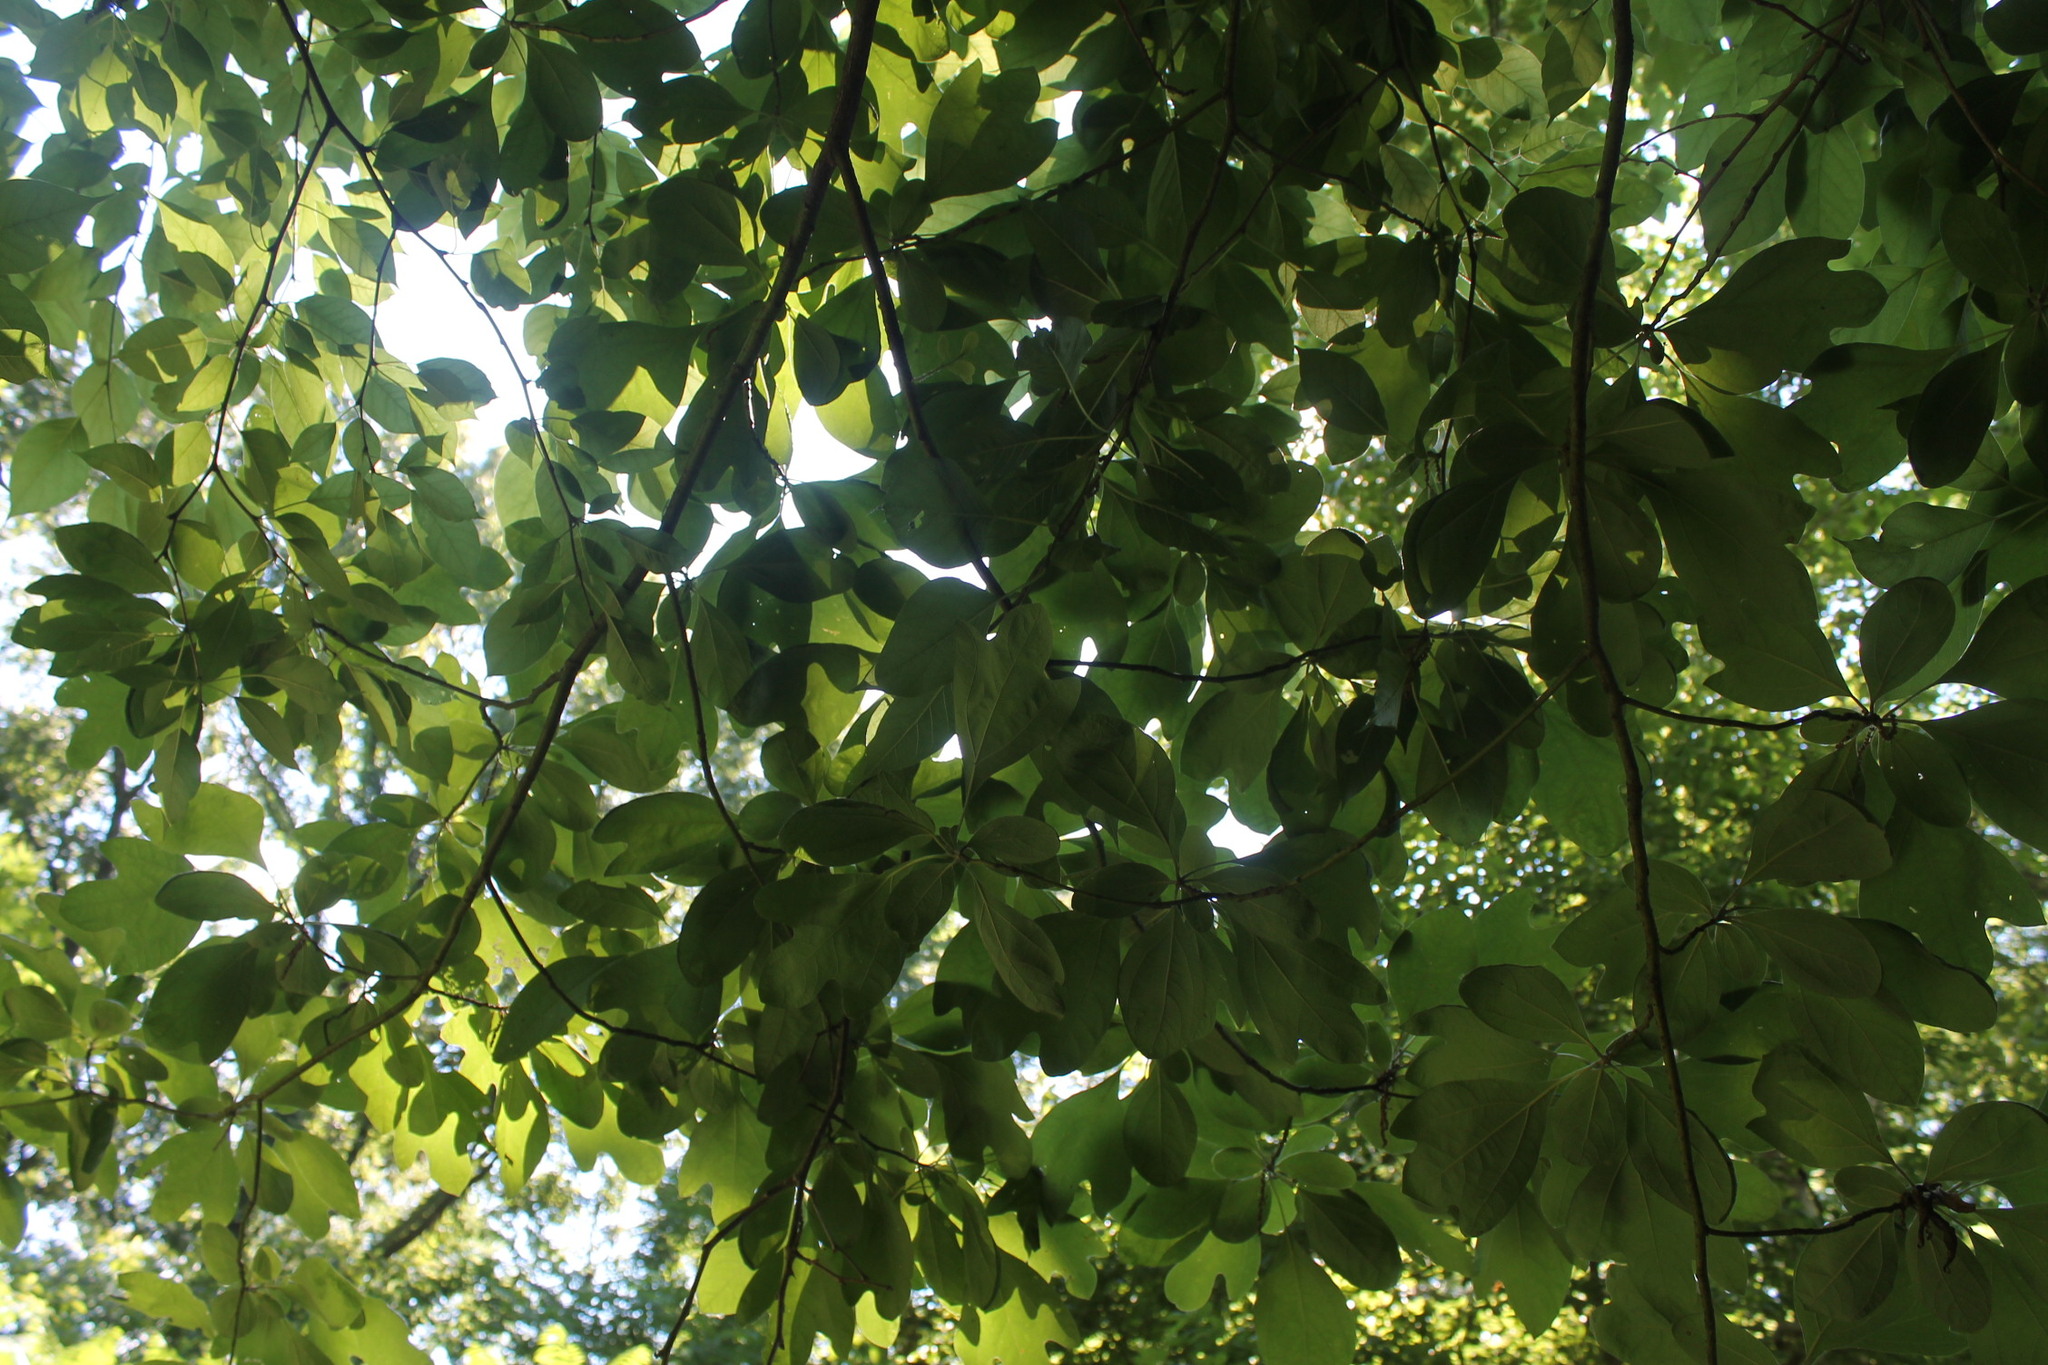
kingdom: Plantae
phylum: Tracheophyta
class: Magnoliopsida
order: Laurales
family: Lauraceae
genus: Sassafras
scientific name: Sassafras albidum
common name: Sassafras
